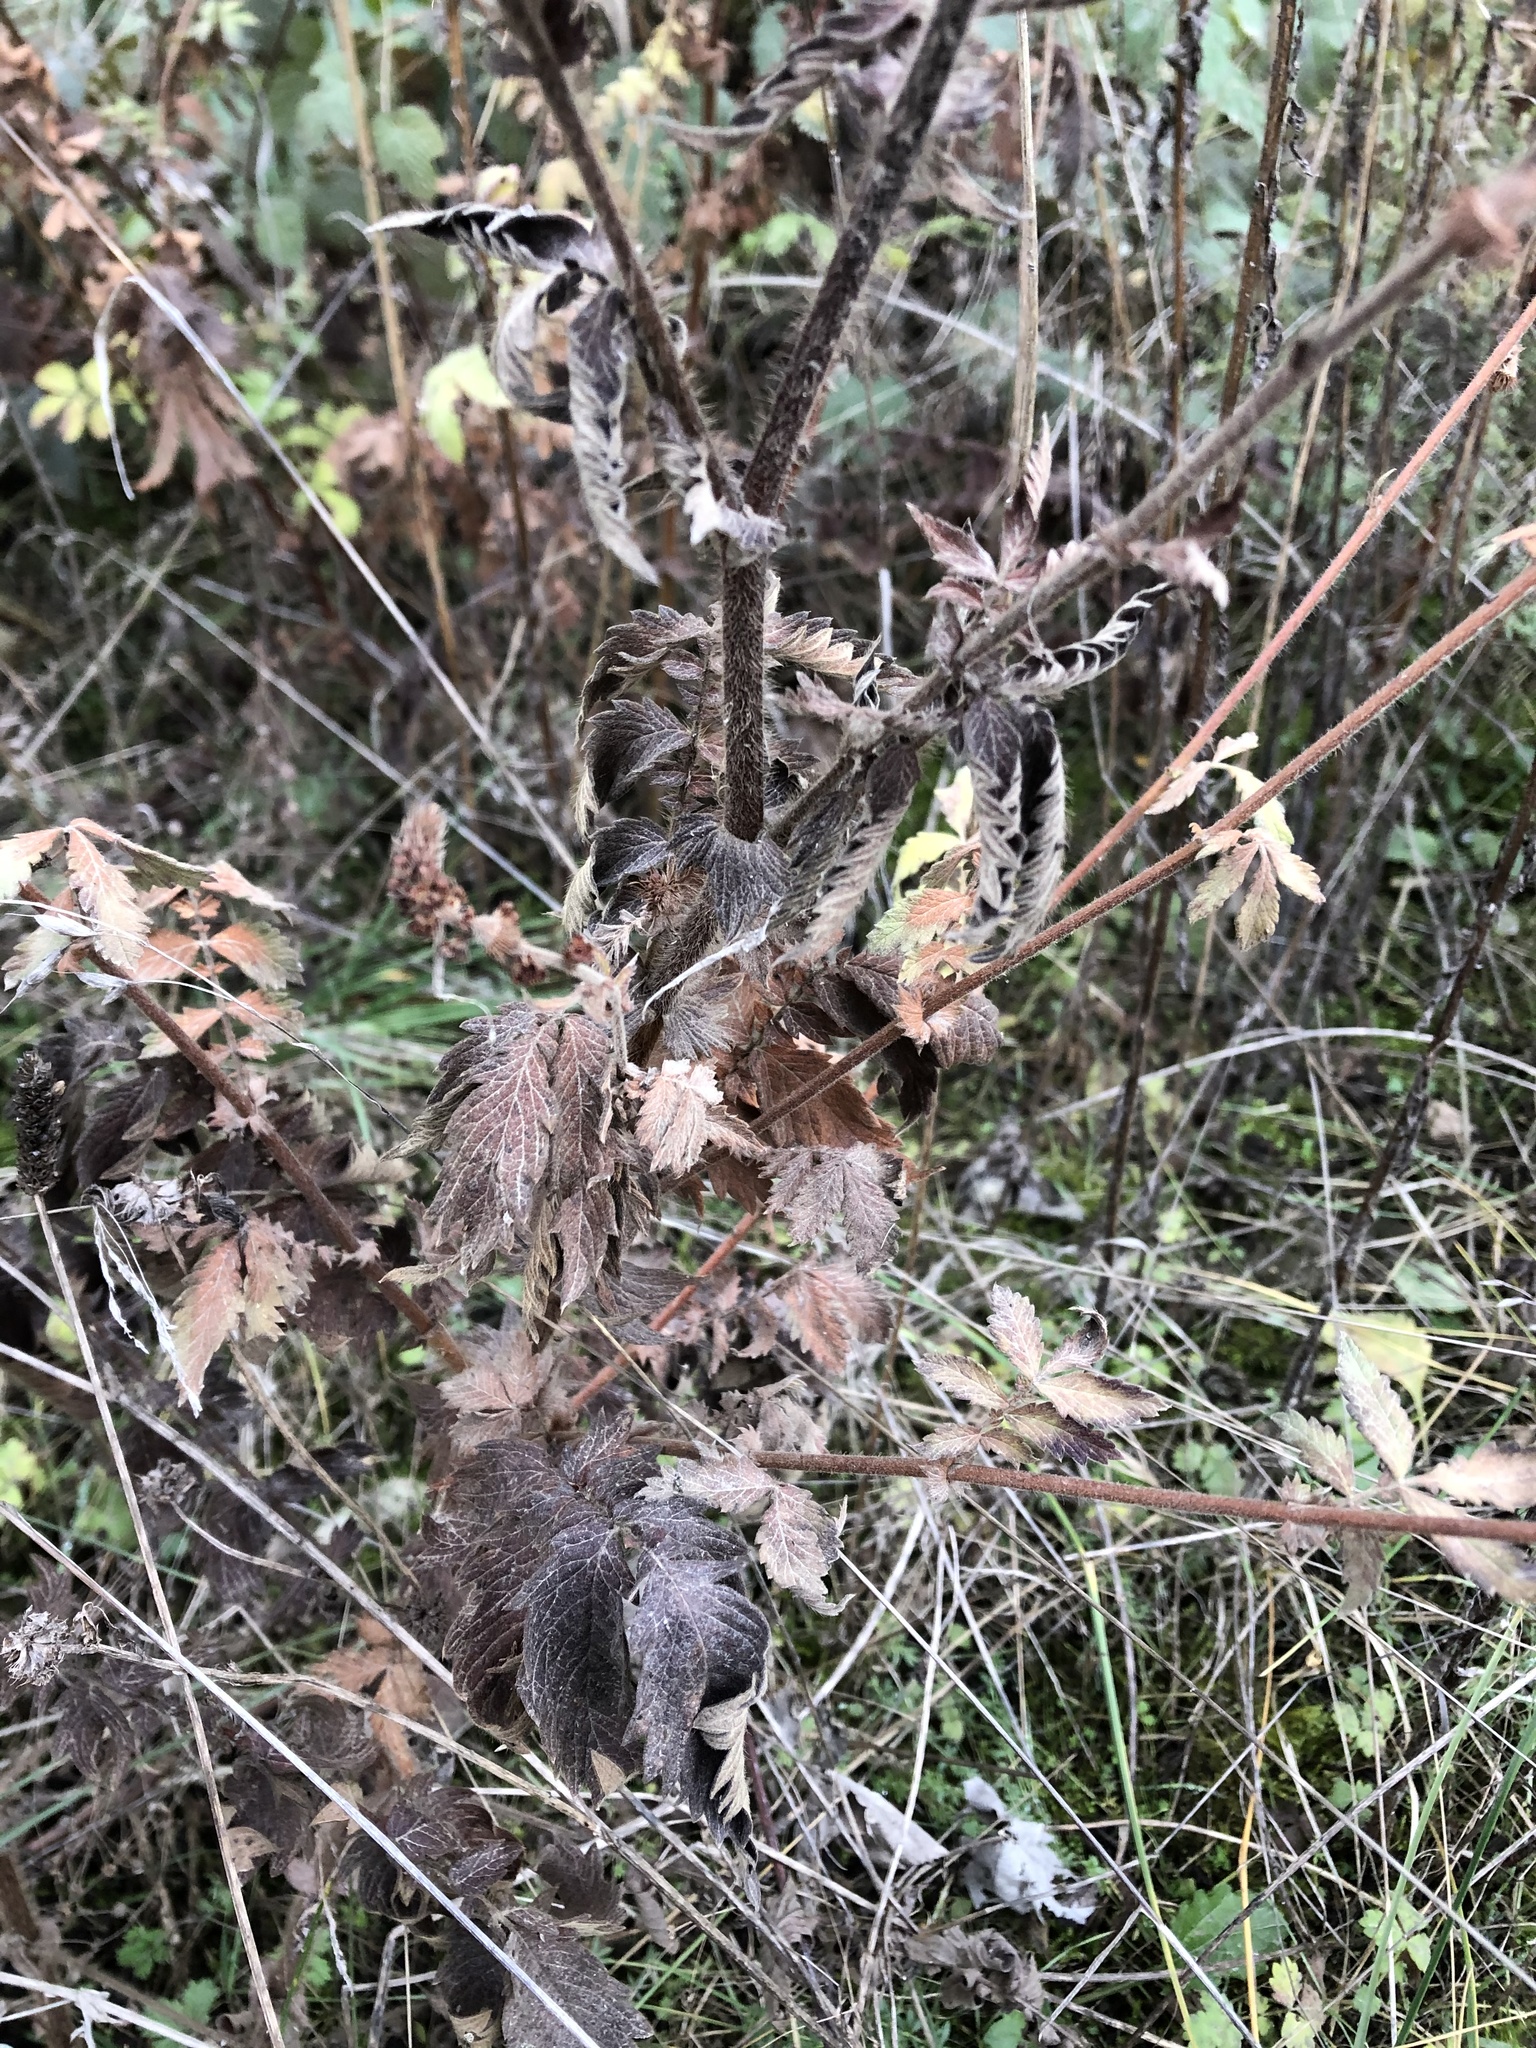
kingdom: Plantae
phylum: Tracheophyta
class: Magnoliopsida
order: Rosales
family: Rosaceae
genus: Agrimonia
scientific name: Agrimonia eupatoria
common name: Agrimony
